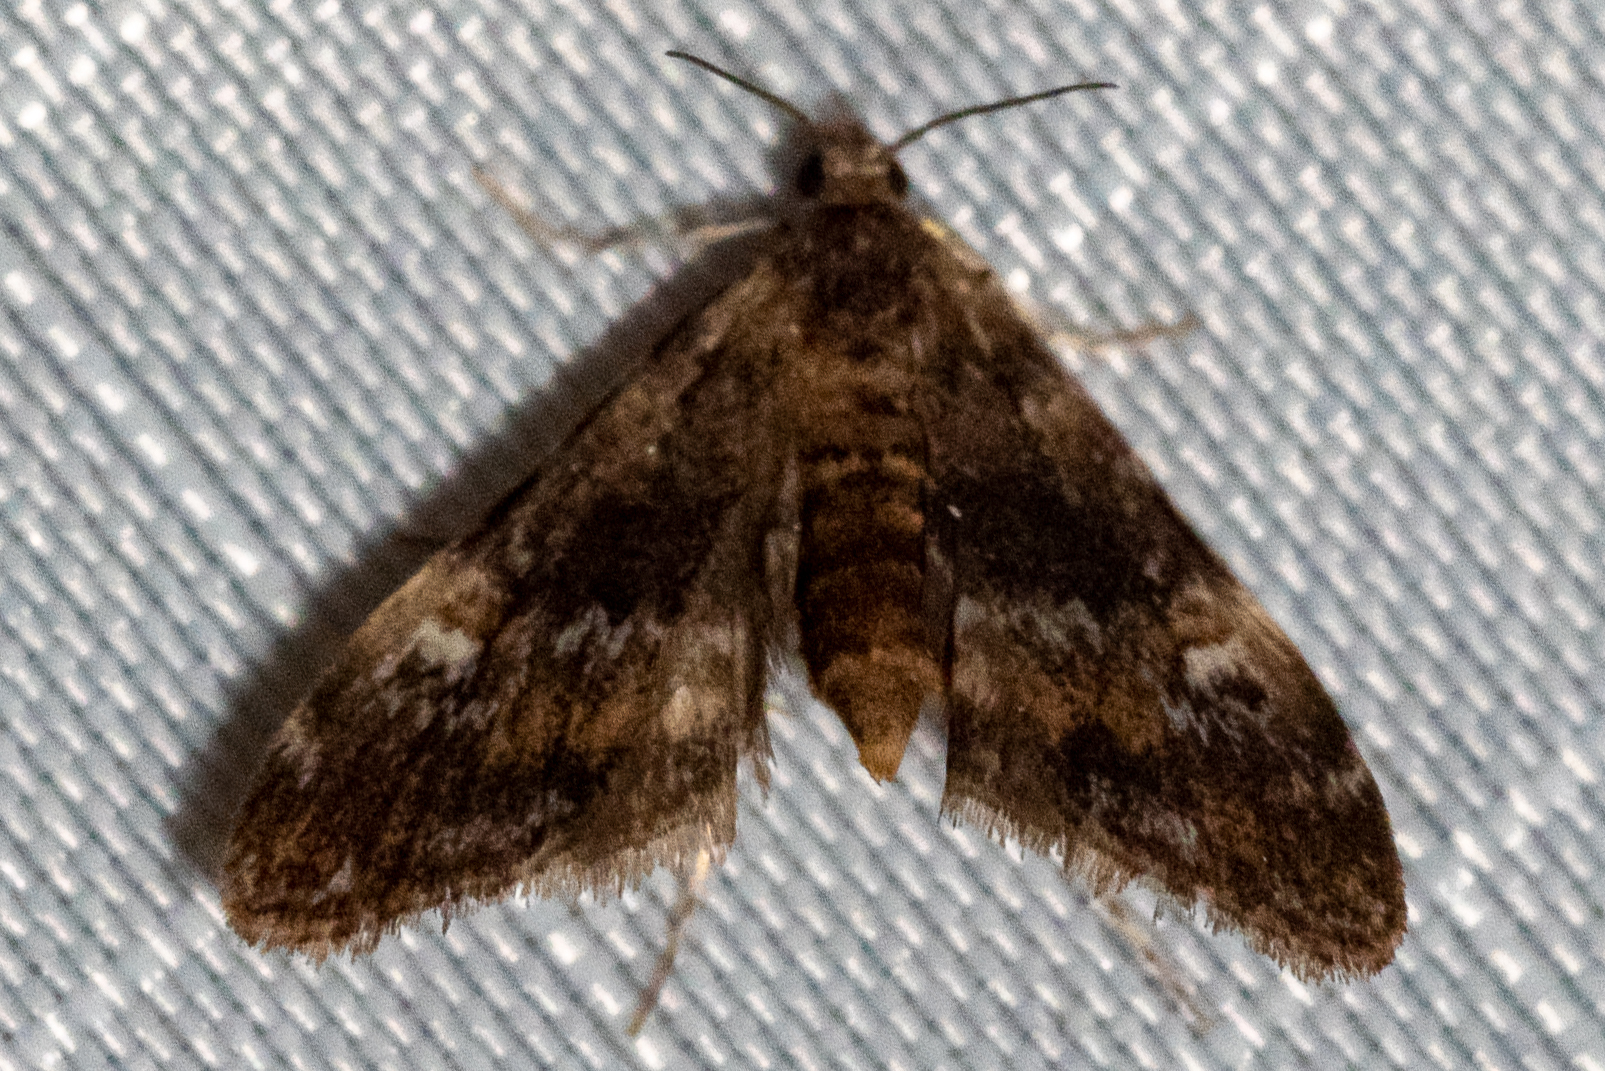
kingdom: Animalia
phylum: Arthropoda
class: Insecta
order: Lepidoptera
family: Crambidae
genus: Elophila
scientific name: Elophila obliteralis
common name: Waterlily leafcutter moth
